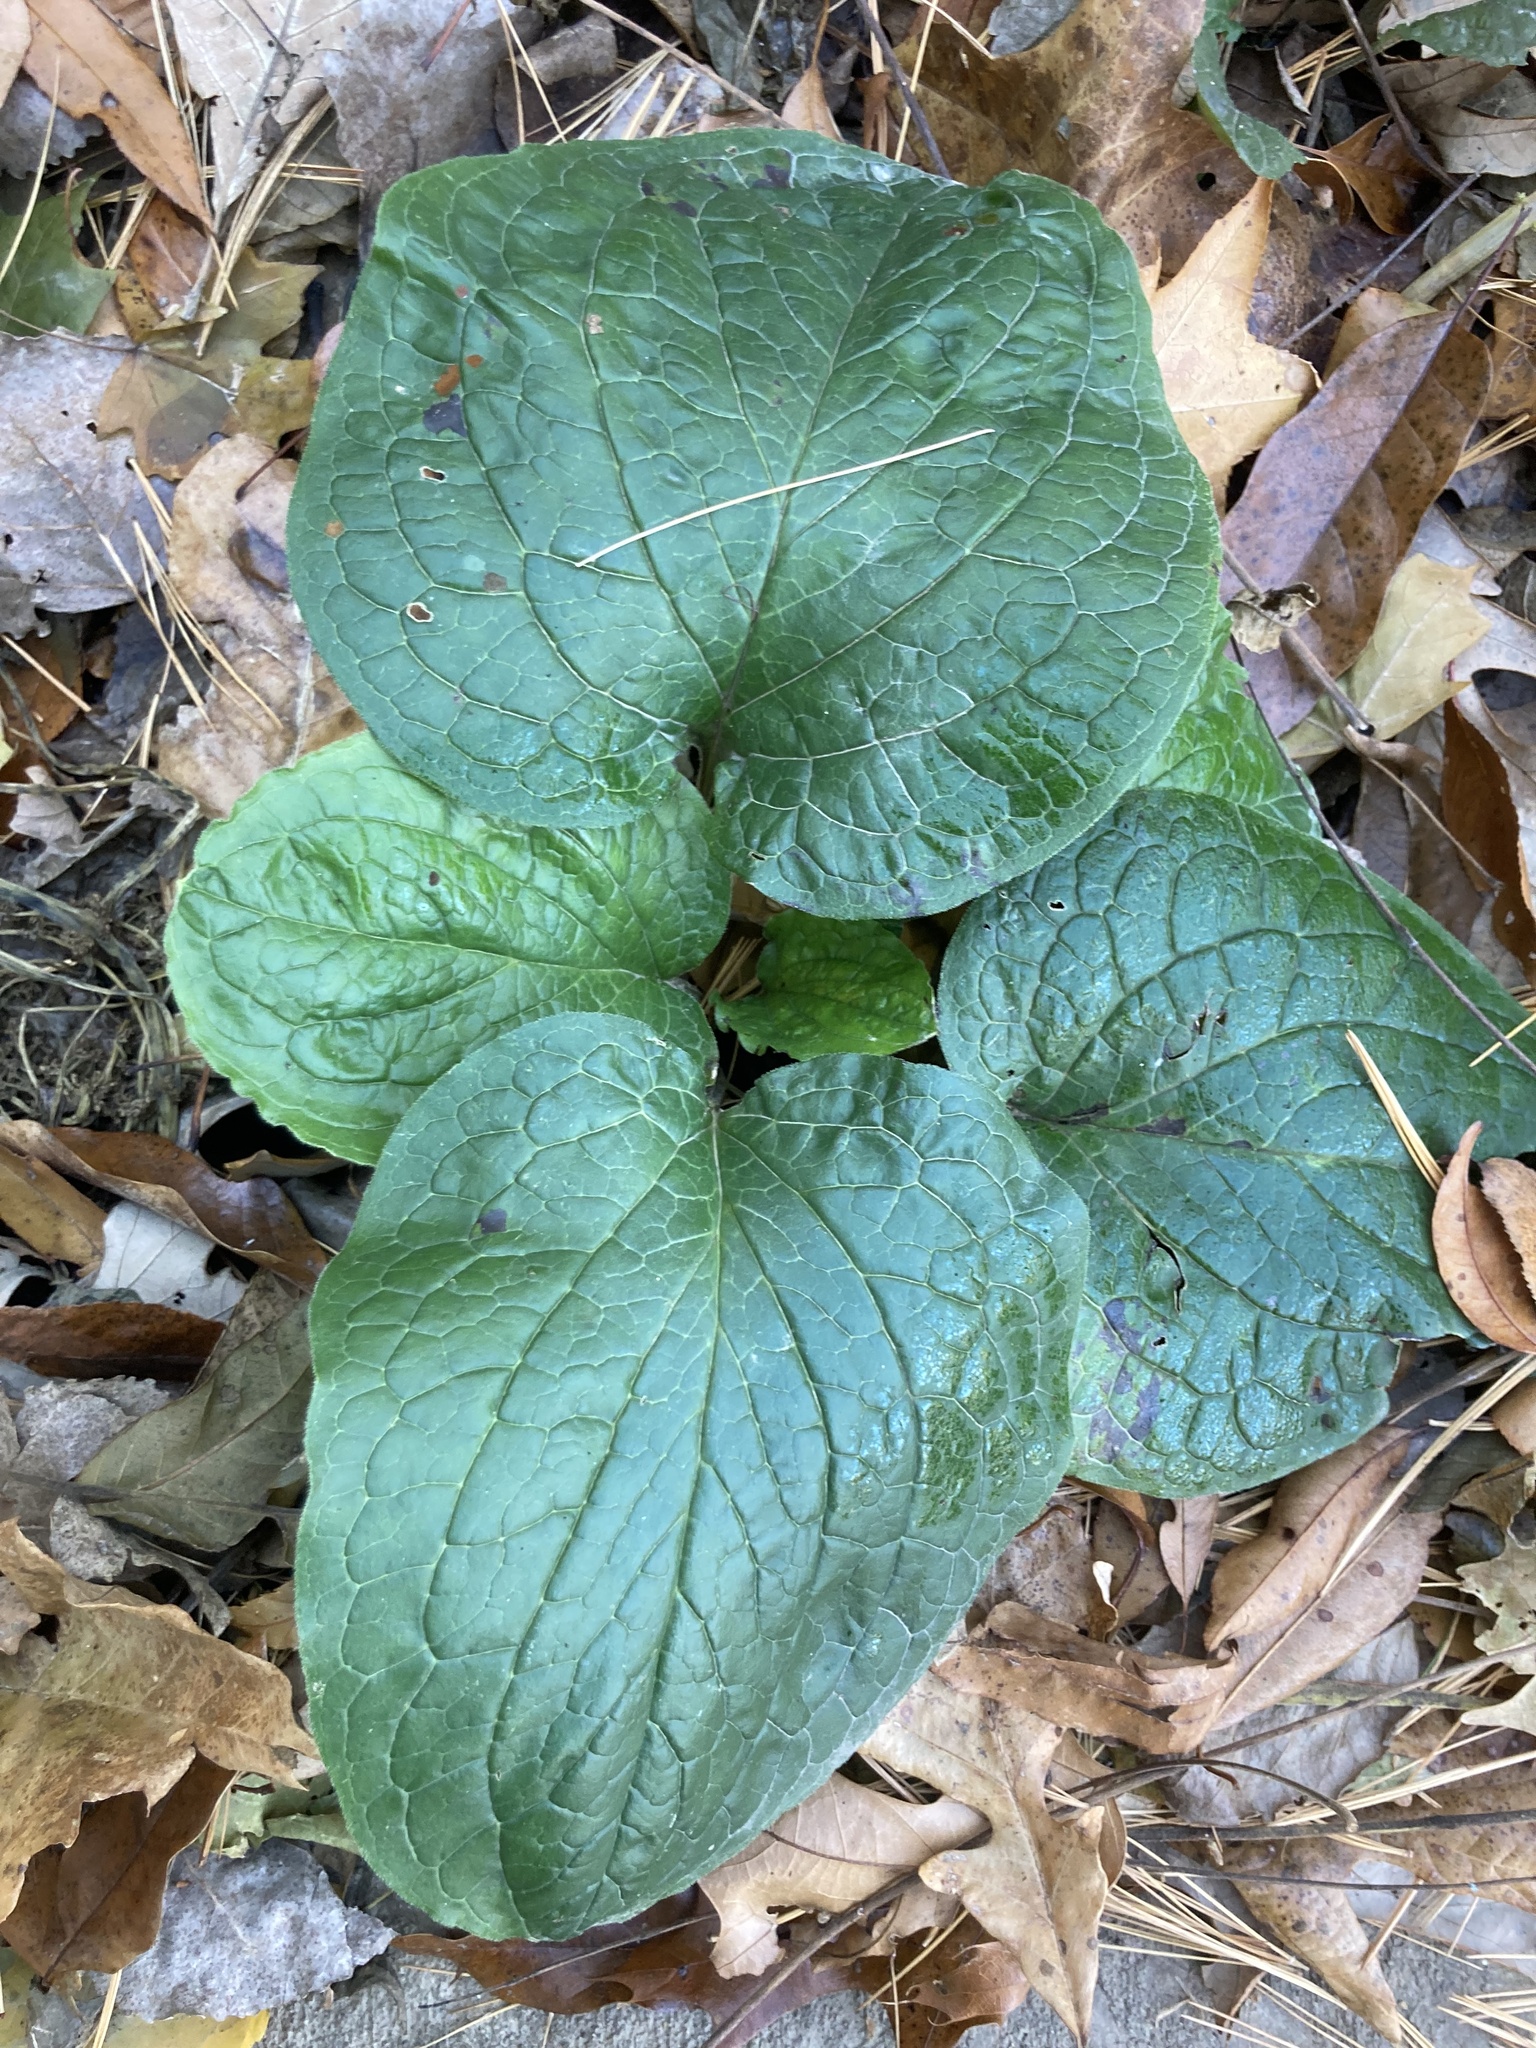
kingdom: Plantae
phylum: Tracheophyta
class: Magnoliopsida
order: Boraginales
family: Boraginaceae
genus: Hackelia
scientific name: Hackelia virginiana
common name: Beggar's-lice
